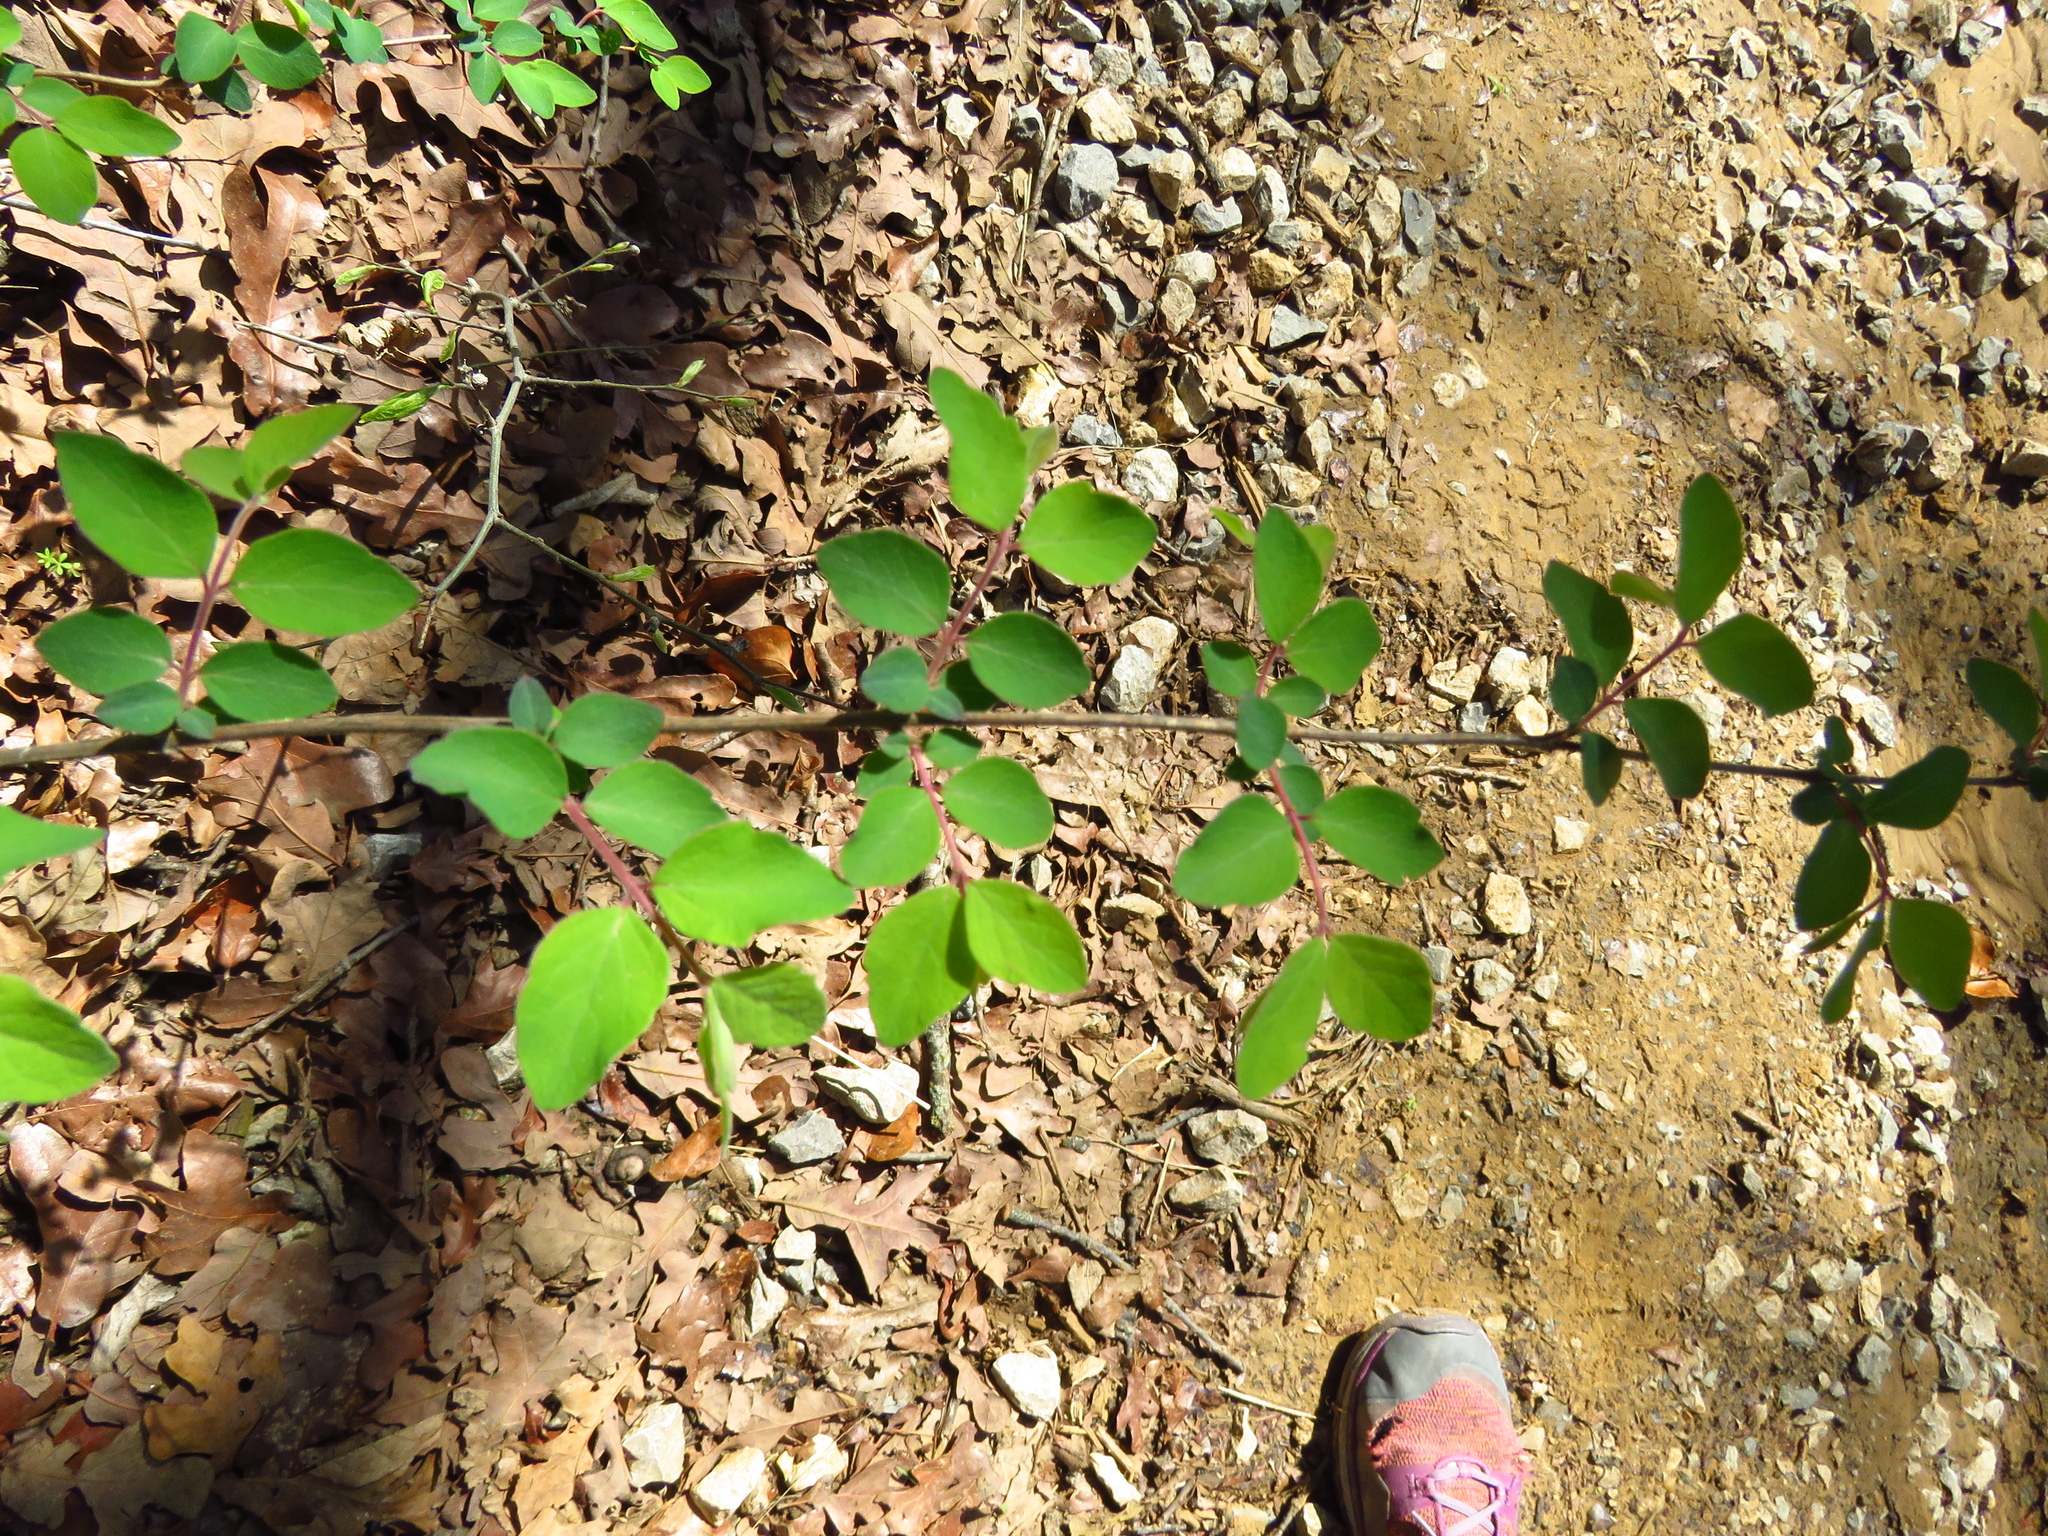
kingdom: Plantae
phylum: Tracheophyta
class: Magnoliopsida
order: Dipsacales
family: Caprifoliaceae
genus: Symphoricarpos
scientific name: Symphoricarpos orbiculatus
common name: Coralberry
